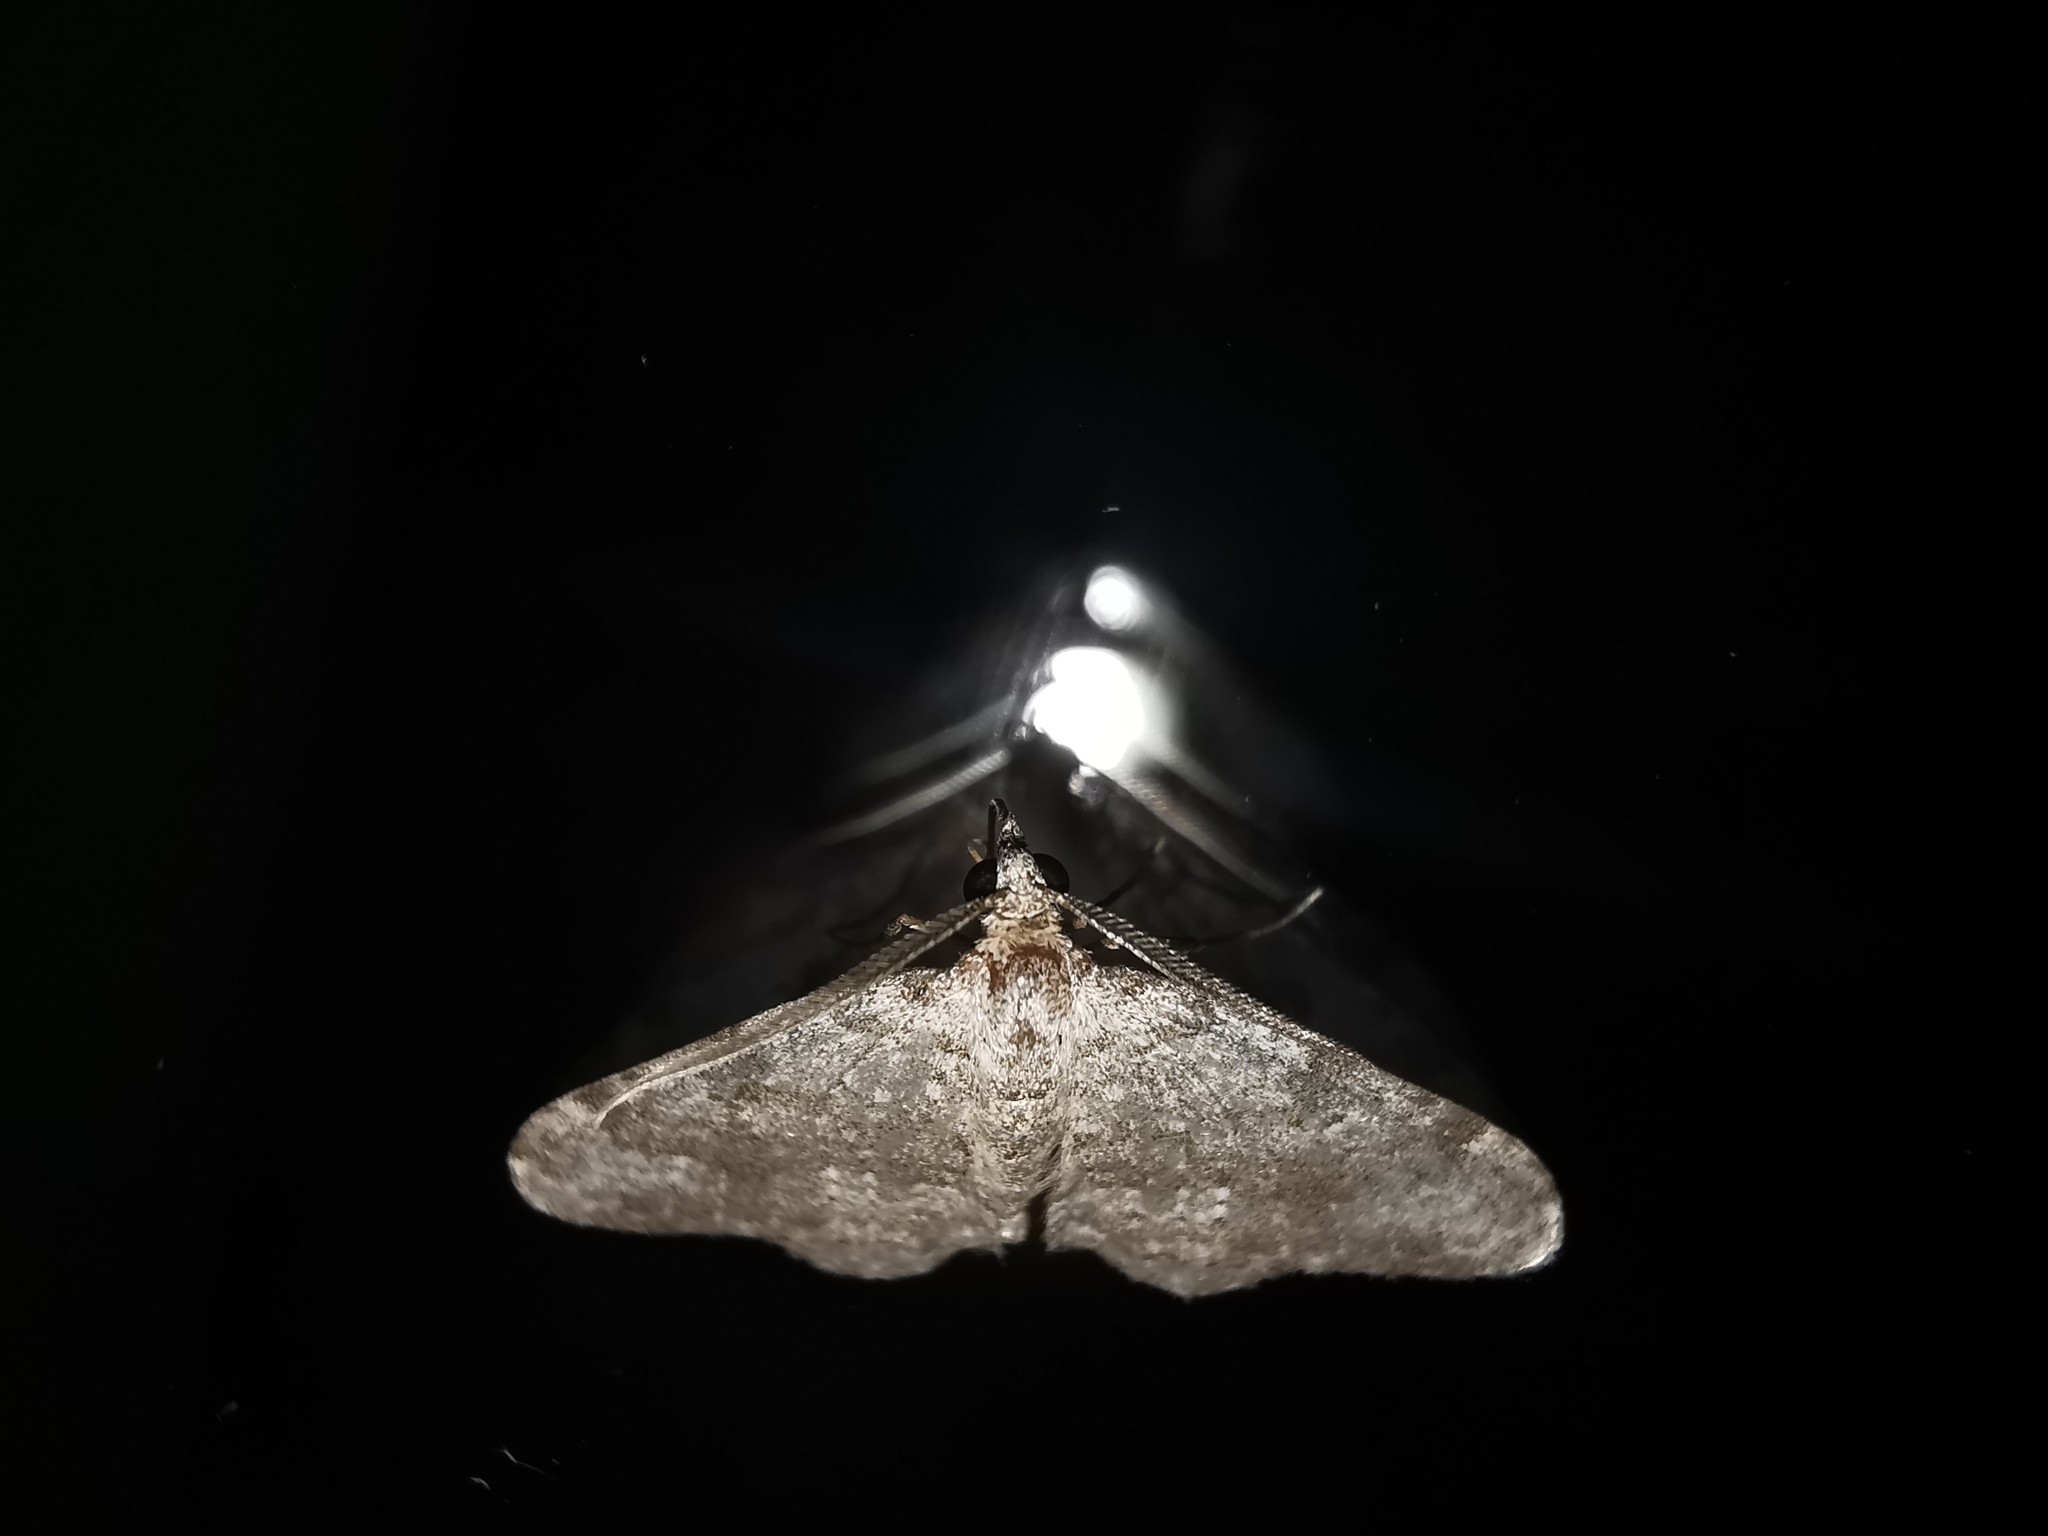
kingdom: Animalia
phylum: Arthropoda
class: Insecta
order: Lepidoptera
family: Geometridae
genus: Nebula
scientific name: Nebula salicata
